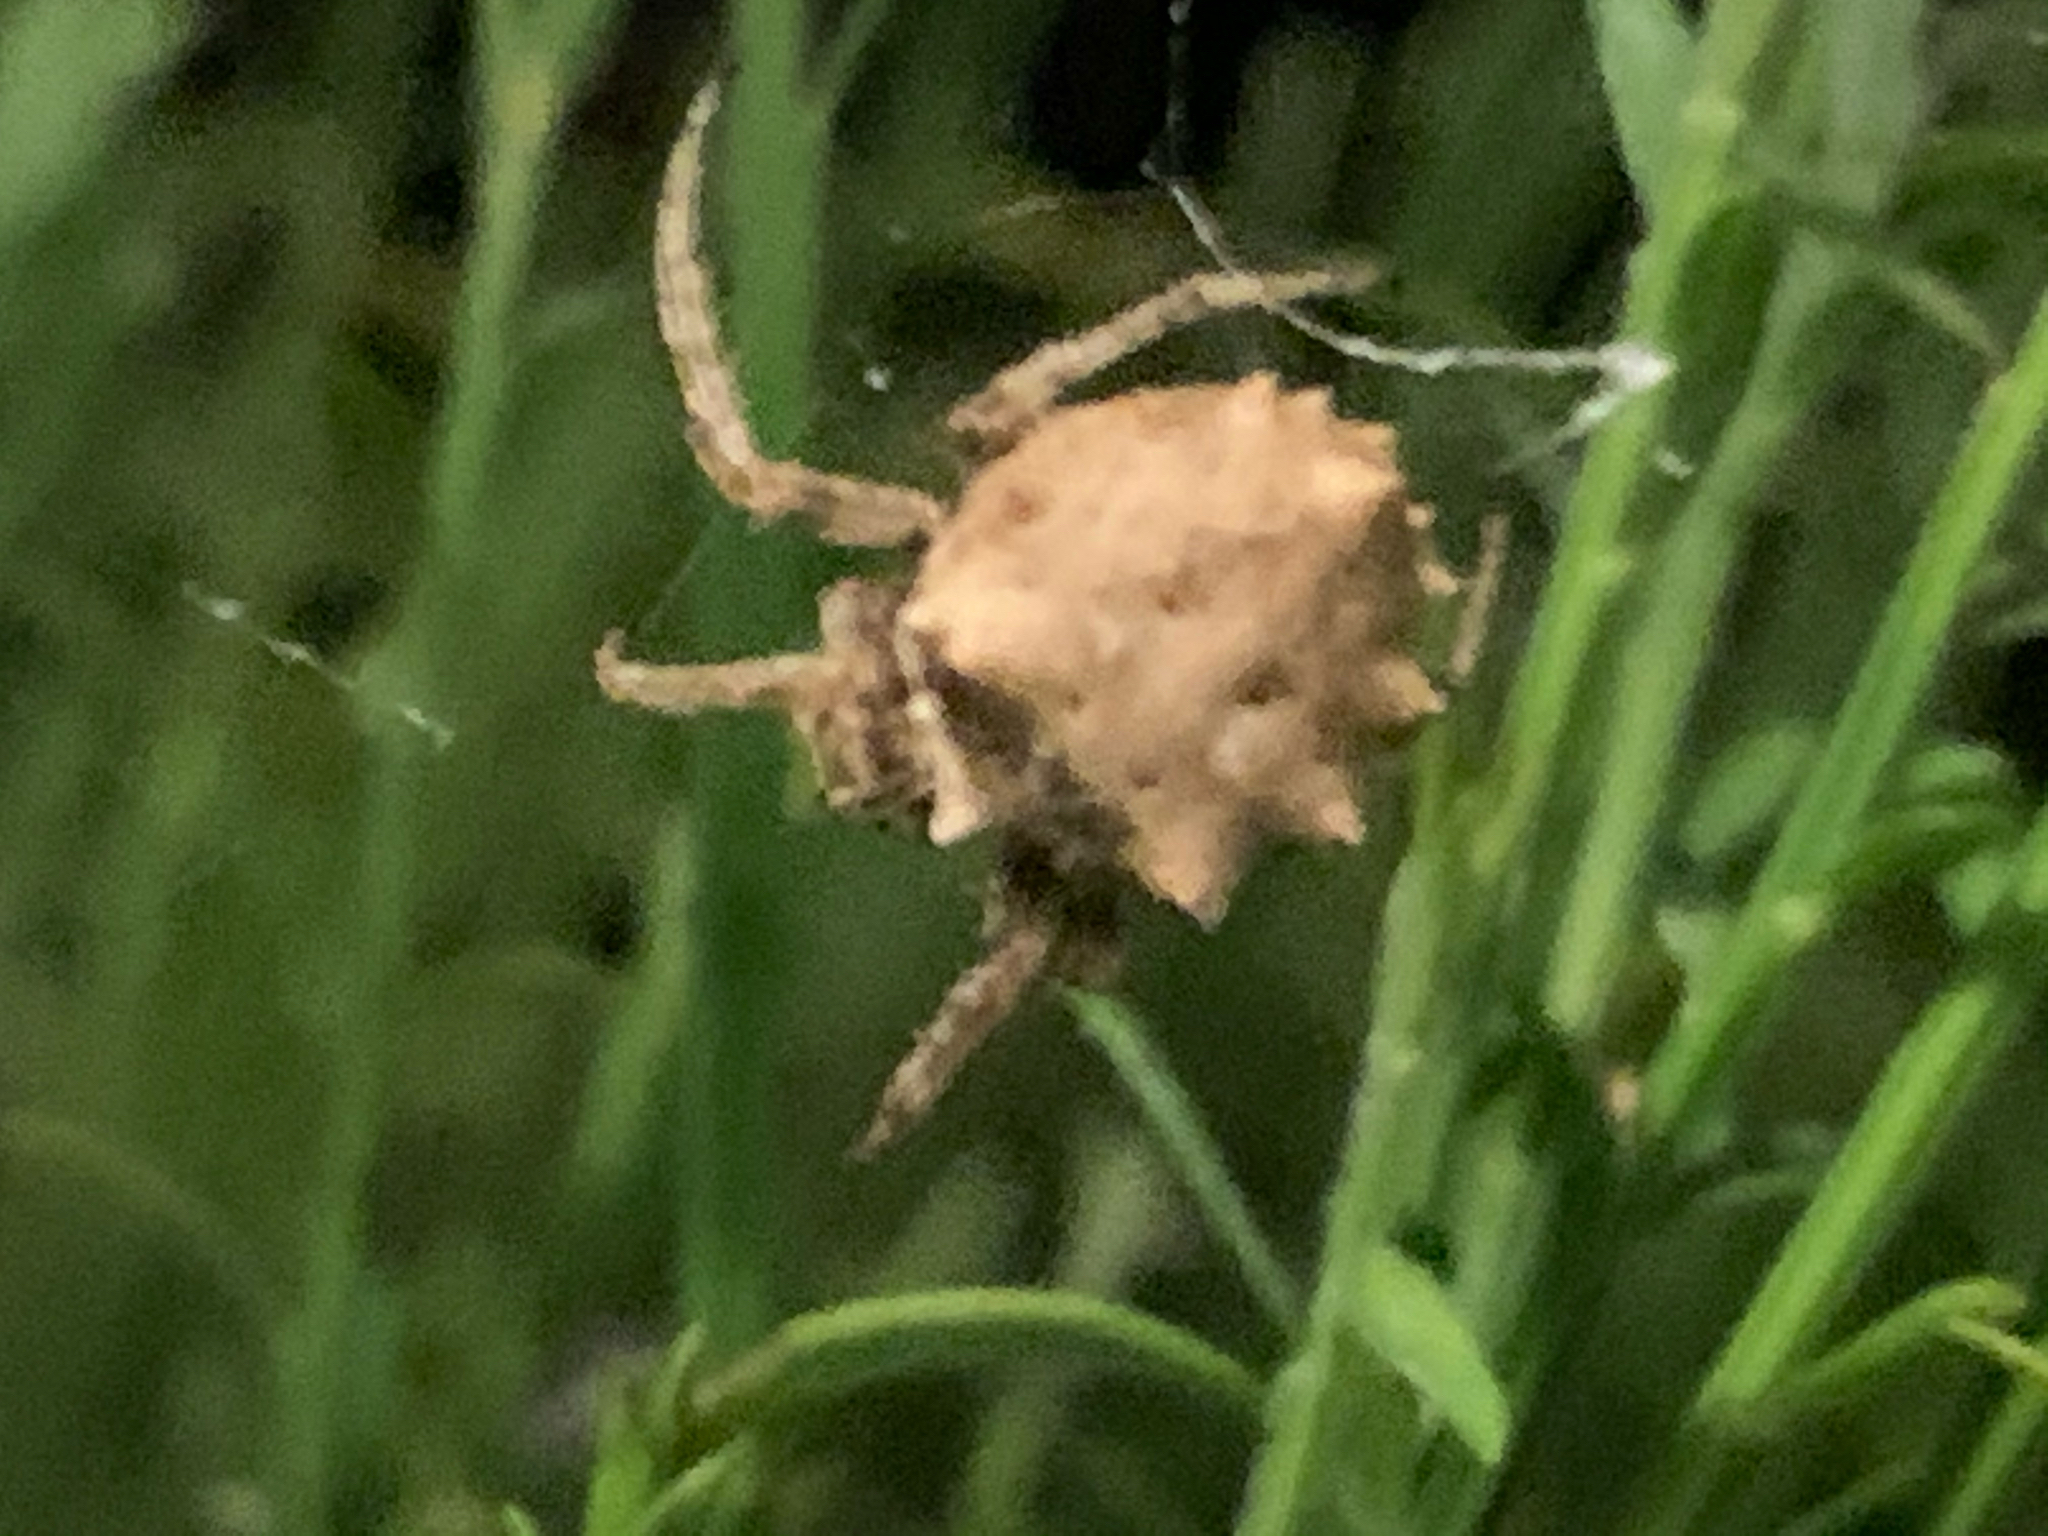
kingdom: Animalia
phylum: Arthropoda
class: Arachnida
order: Araneae
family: Araneidae
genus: Acanthepeira
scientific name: Acanthepeira stellata
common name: Starbellied orbweaver
